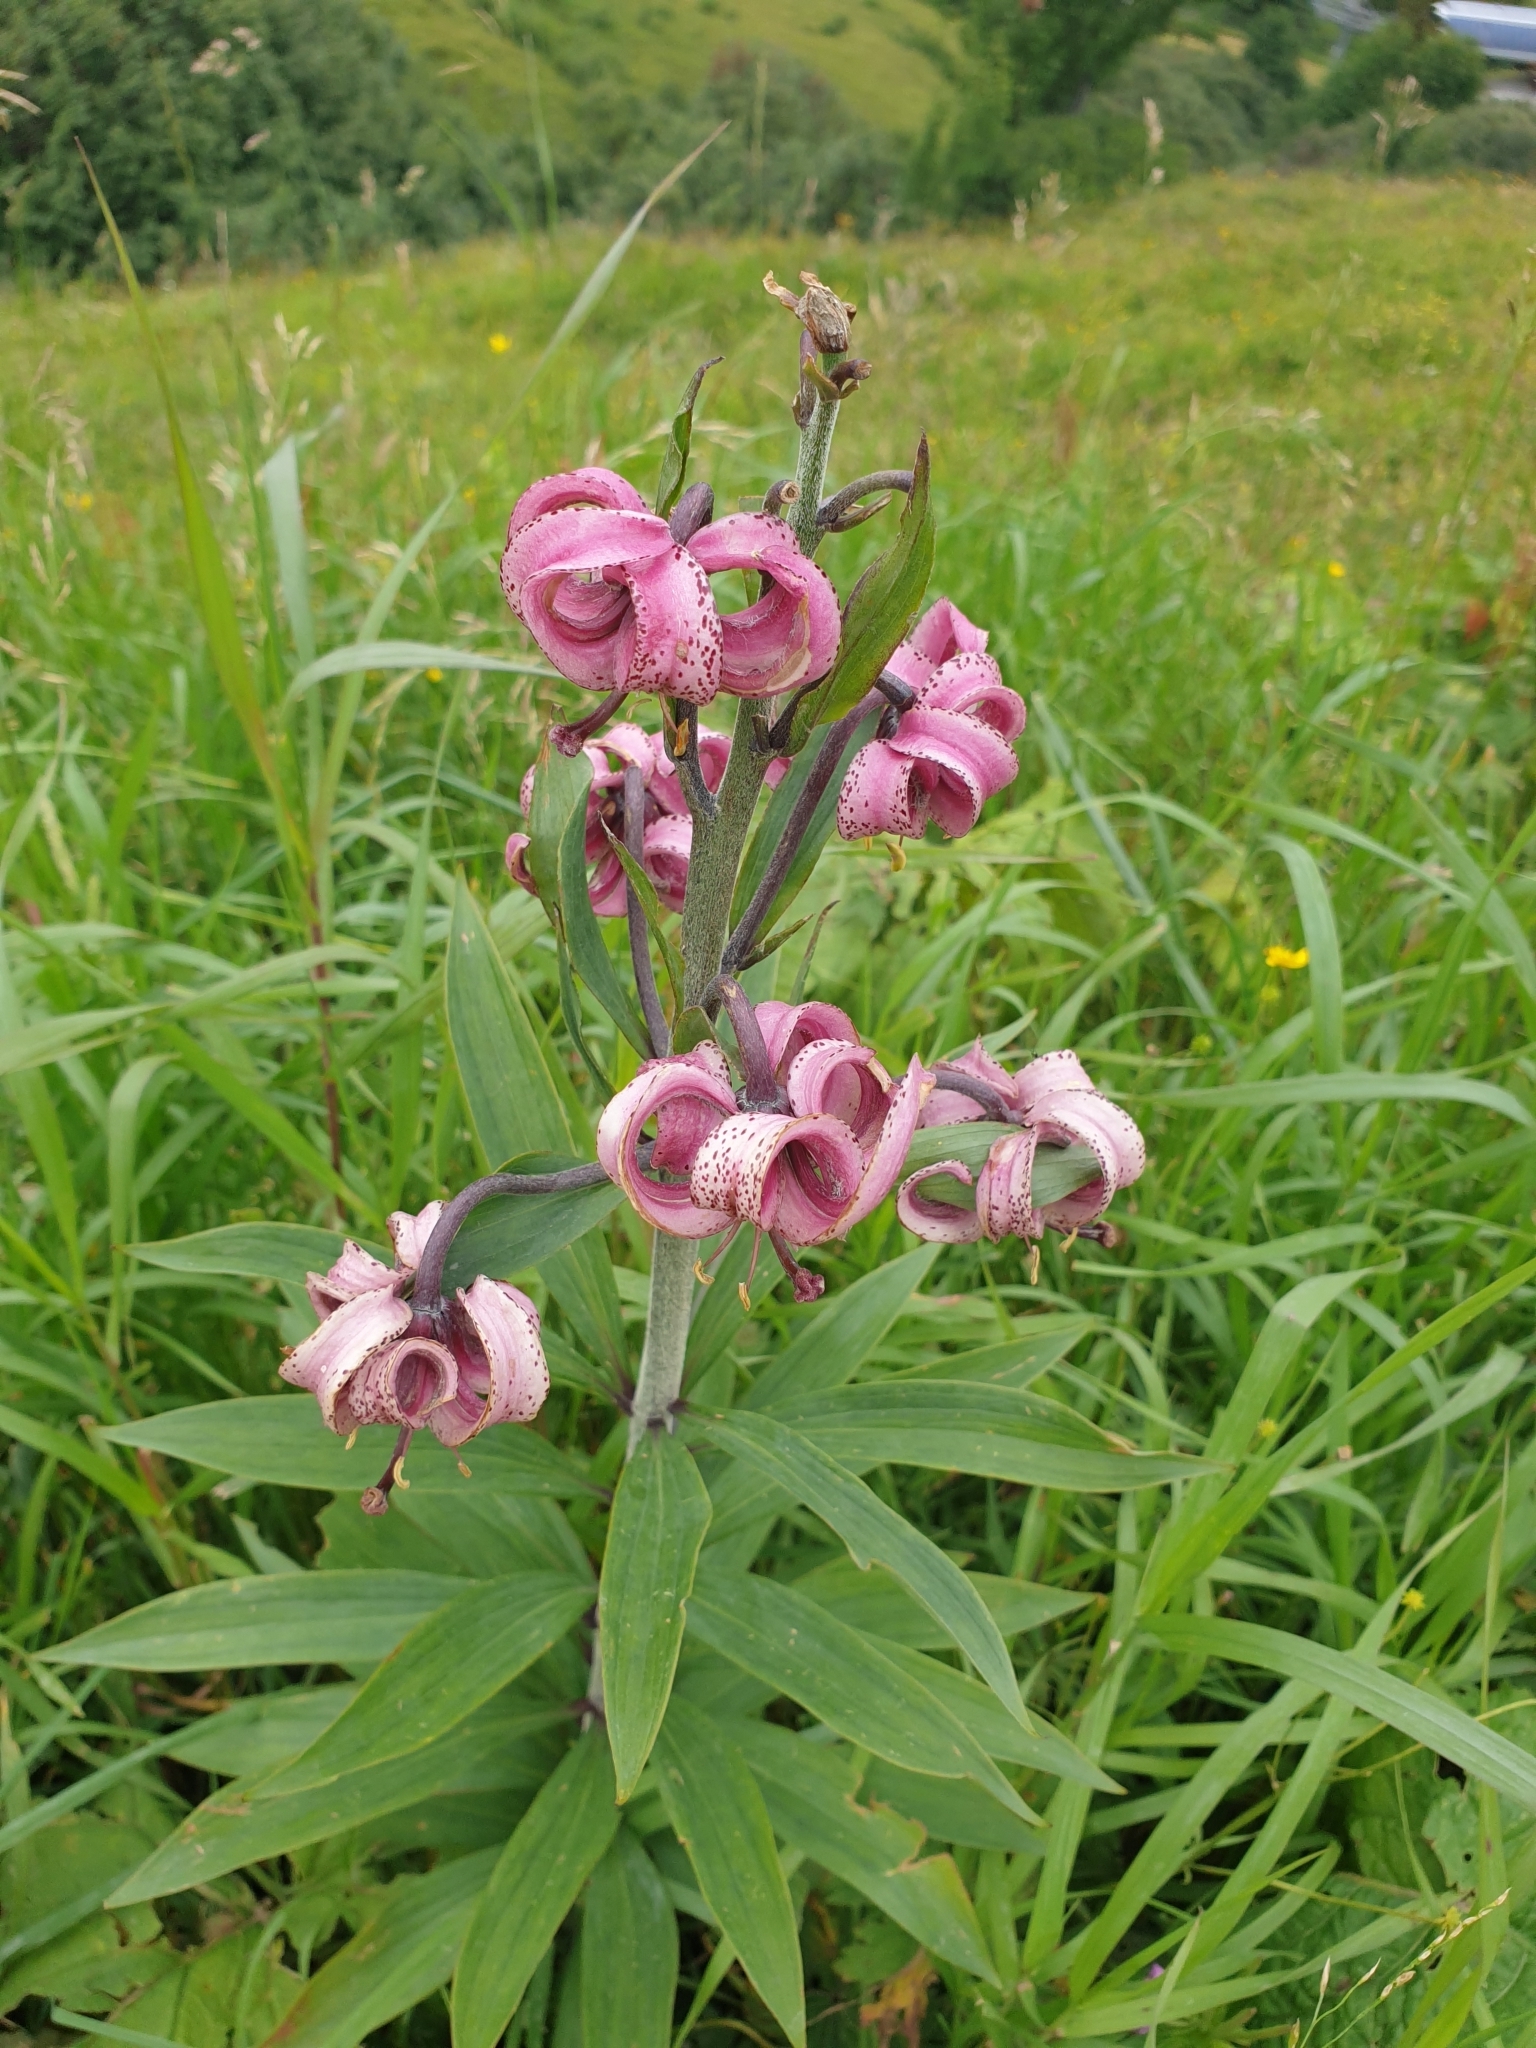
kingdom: Plantae
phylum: Tracheophyta
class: Liliopsida
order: Liliales
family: Liliaceae
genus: Lilium
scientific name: Lilium martagon
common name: Martagon lily
